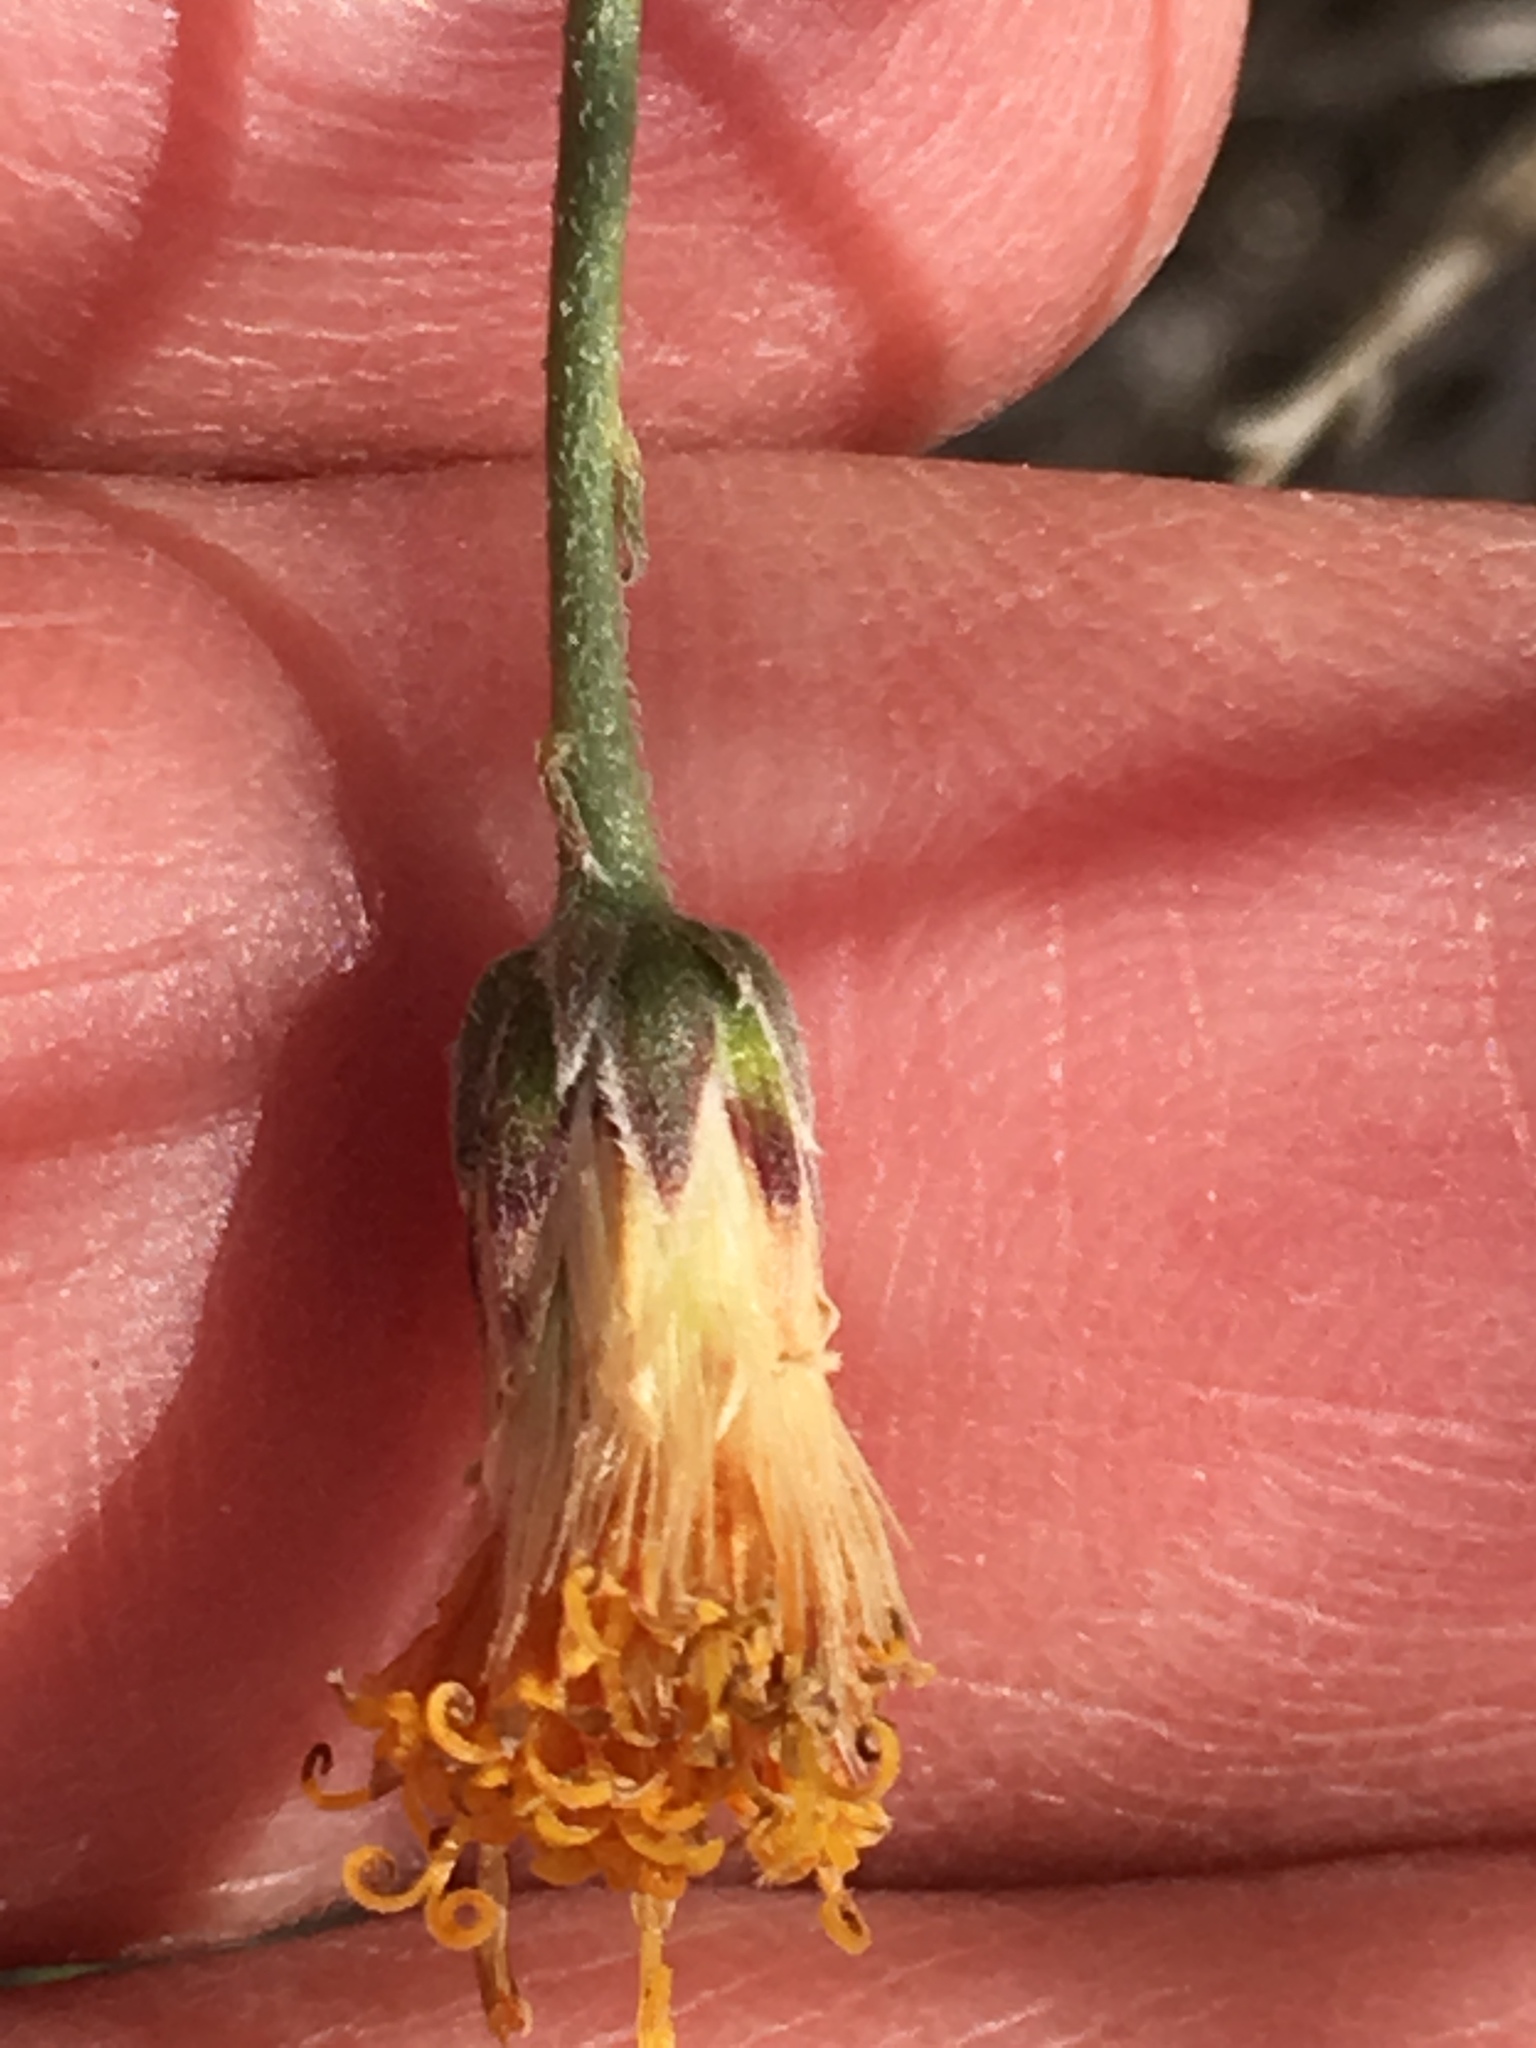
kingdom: Plantae
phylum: Tracheophyta
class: Magnoliopsida
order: Asterales
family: Asteraceae
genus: Bebbia
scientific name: Bebbia juncea
